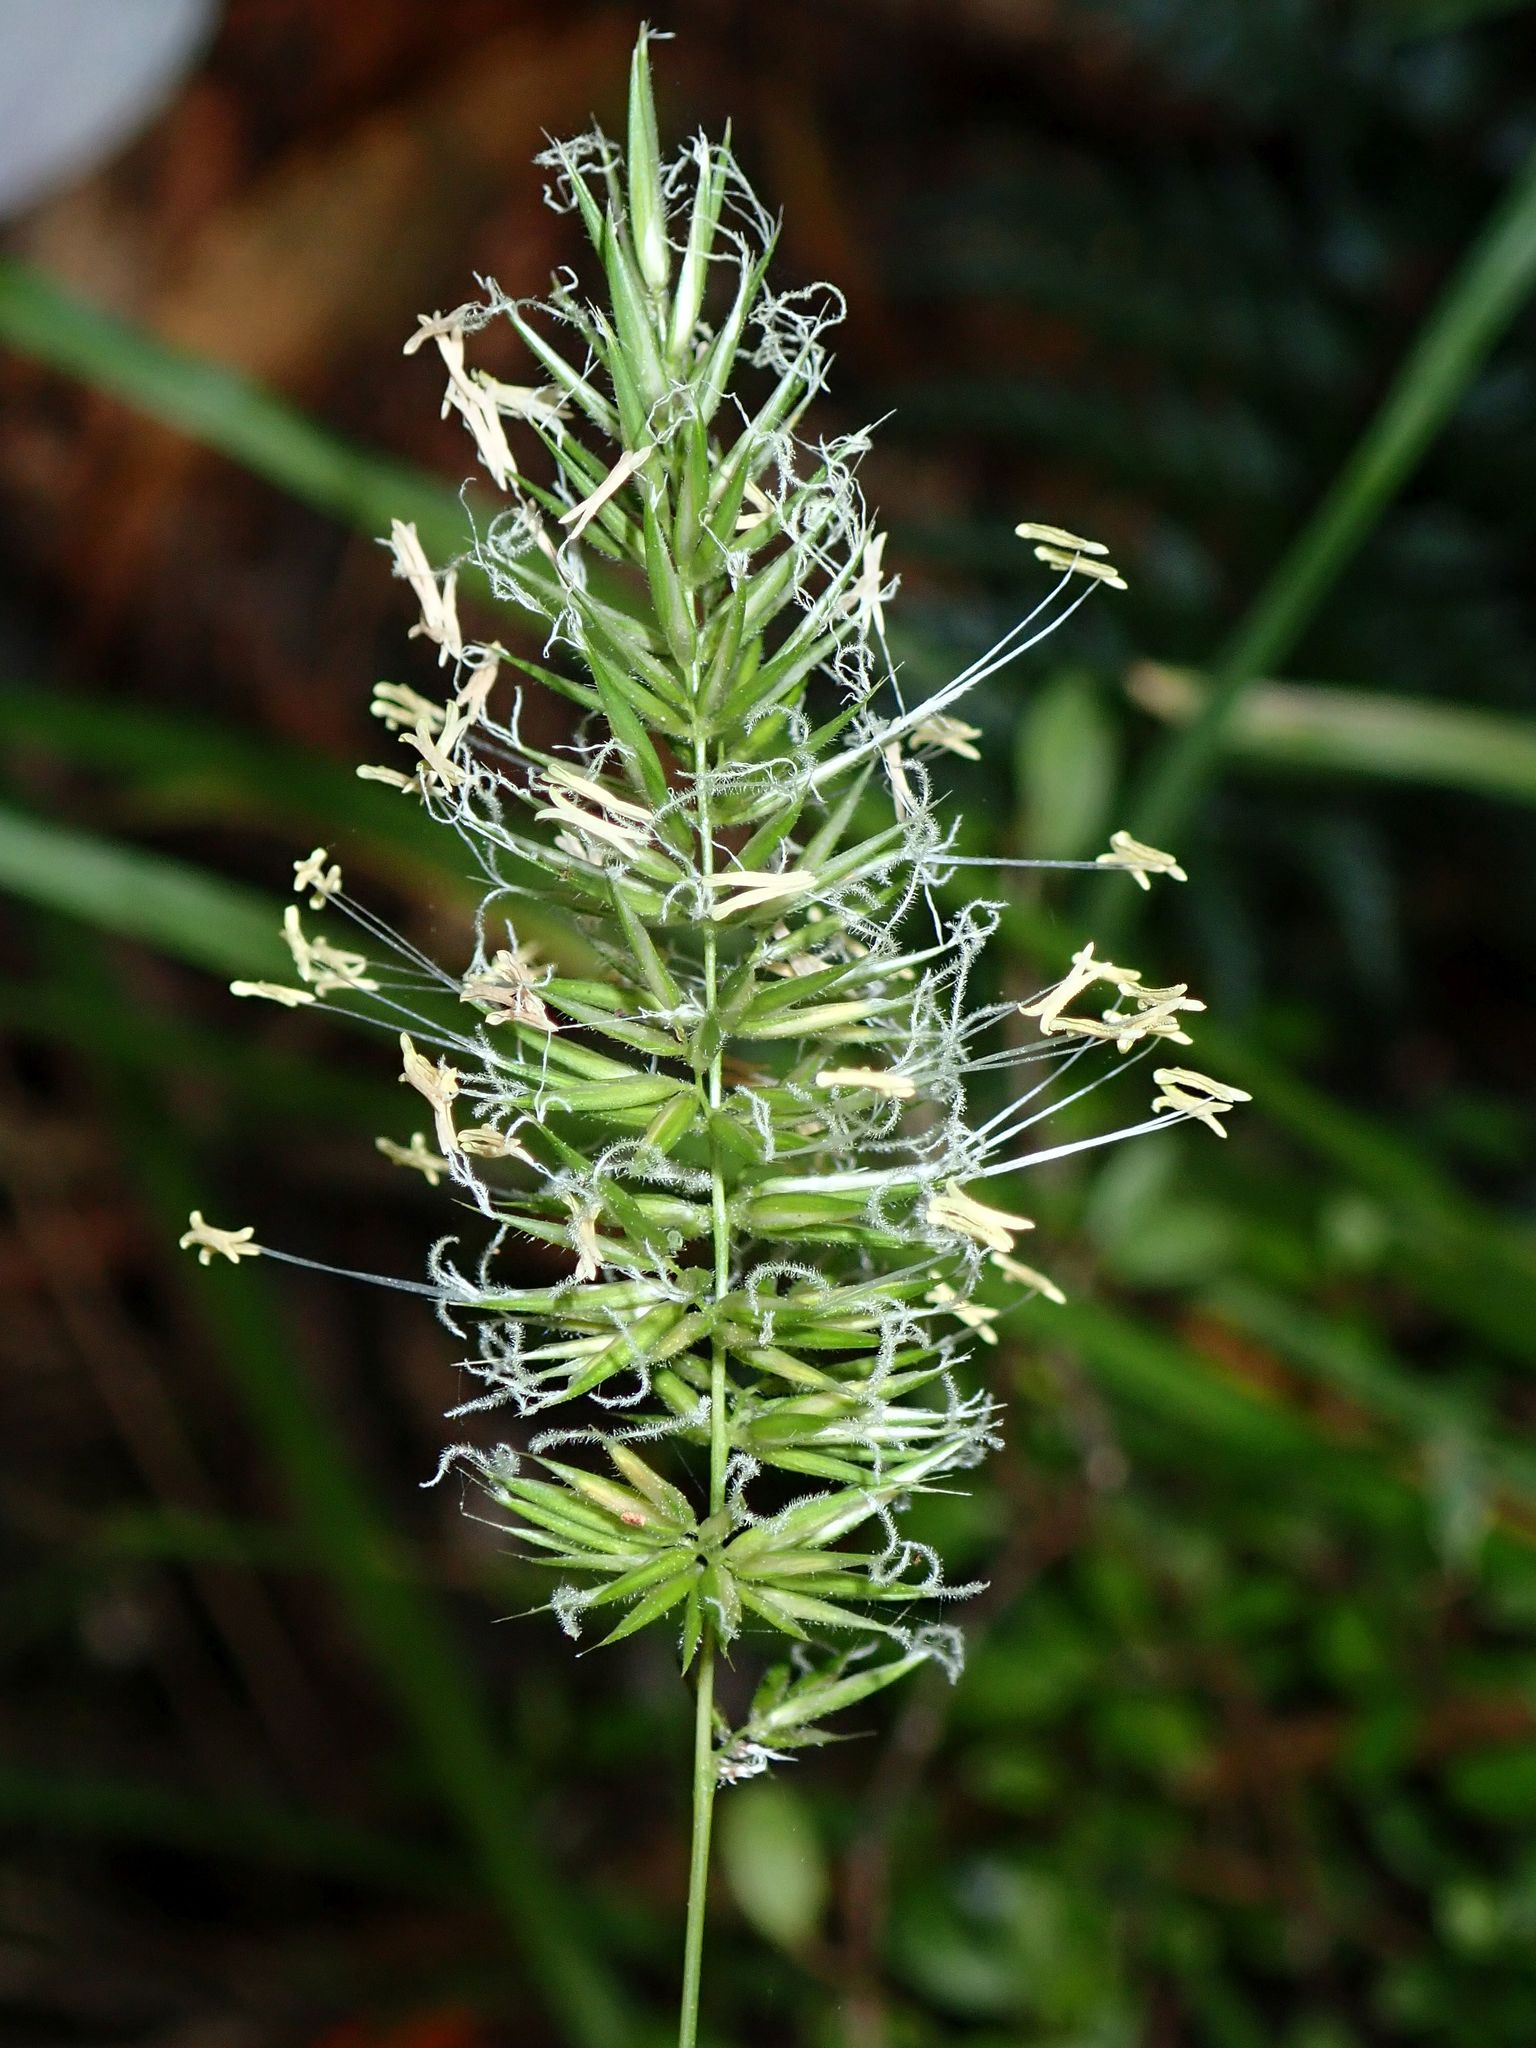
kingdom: Plantae
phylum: Tracheophyta
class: Liliopsida
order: Poales
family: Poaceae
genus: Anthoxanthum
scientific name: Anthoxanthum odoratum
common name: Sweet vernalgrass
